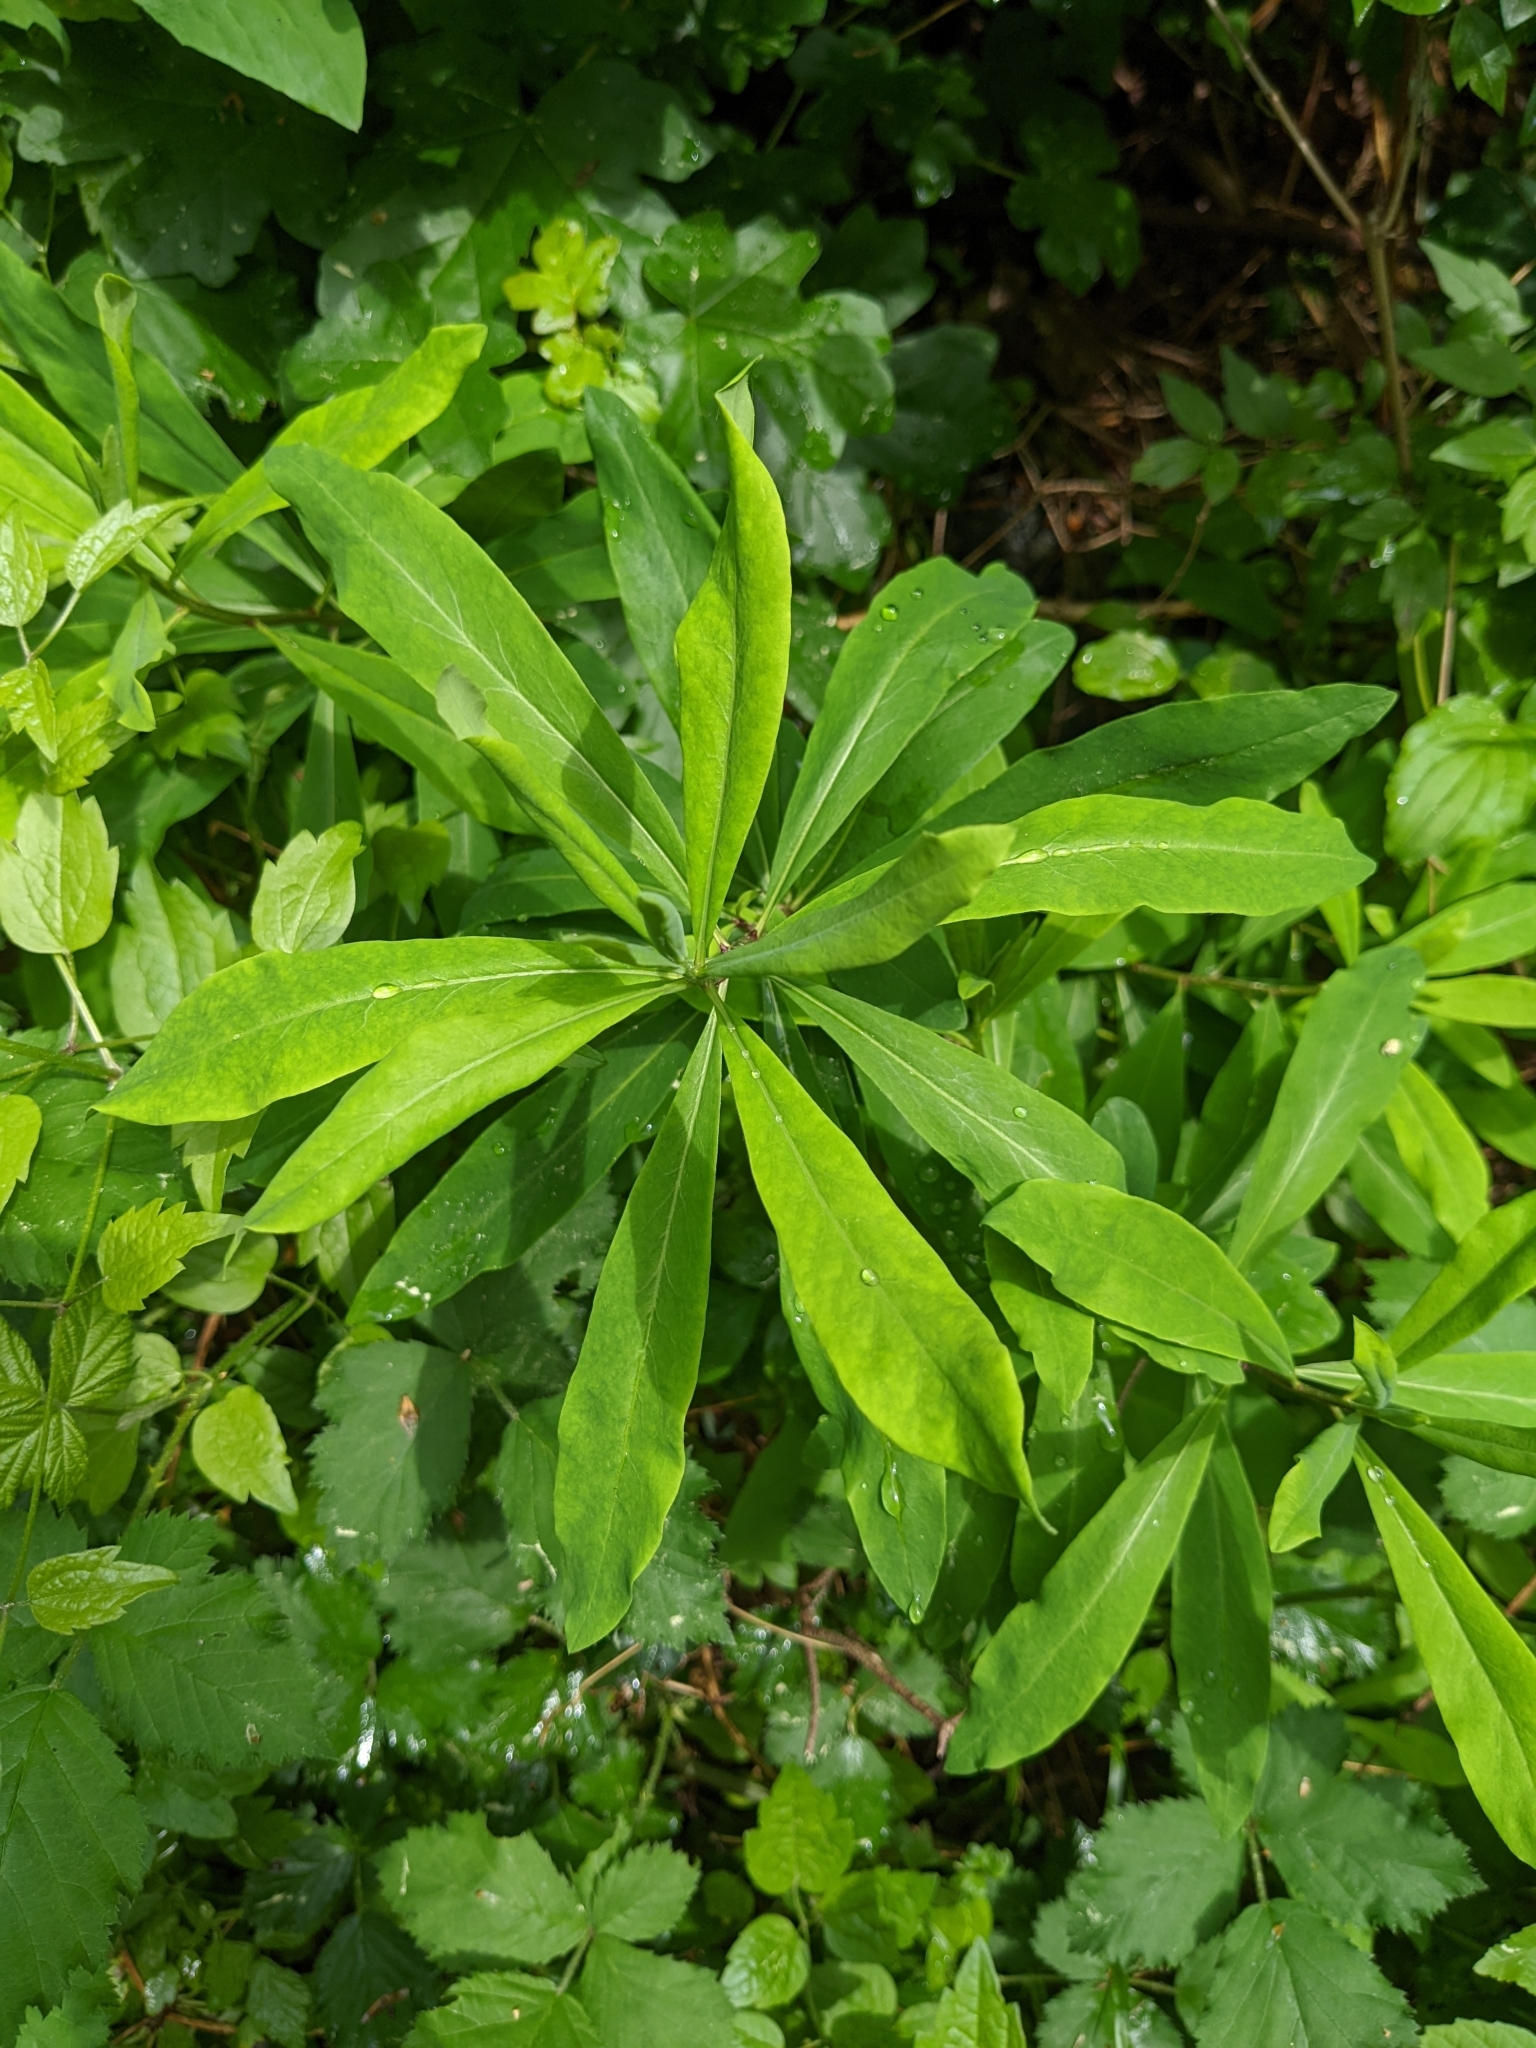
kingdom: Plantae
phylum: Tracheophyta
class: Magnoliopsida
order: Malvales
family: Thymelaeaceae
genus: Daphne
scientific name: Daphne mezereum
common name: Mezereon
